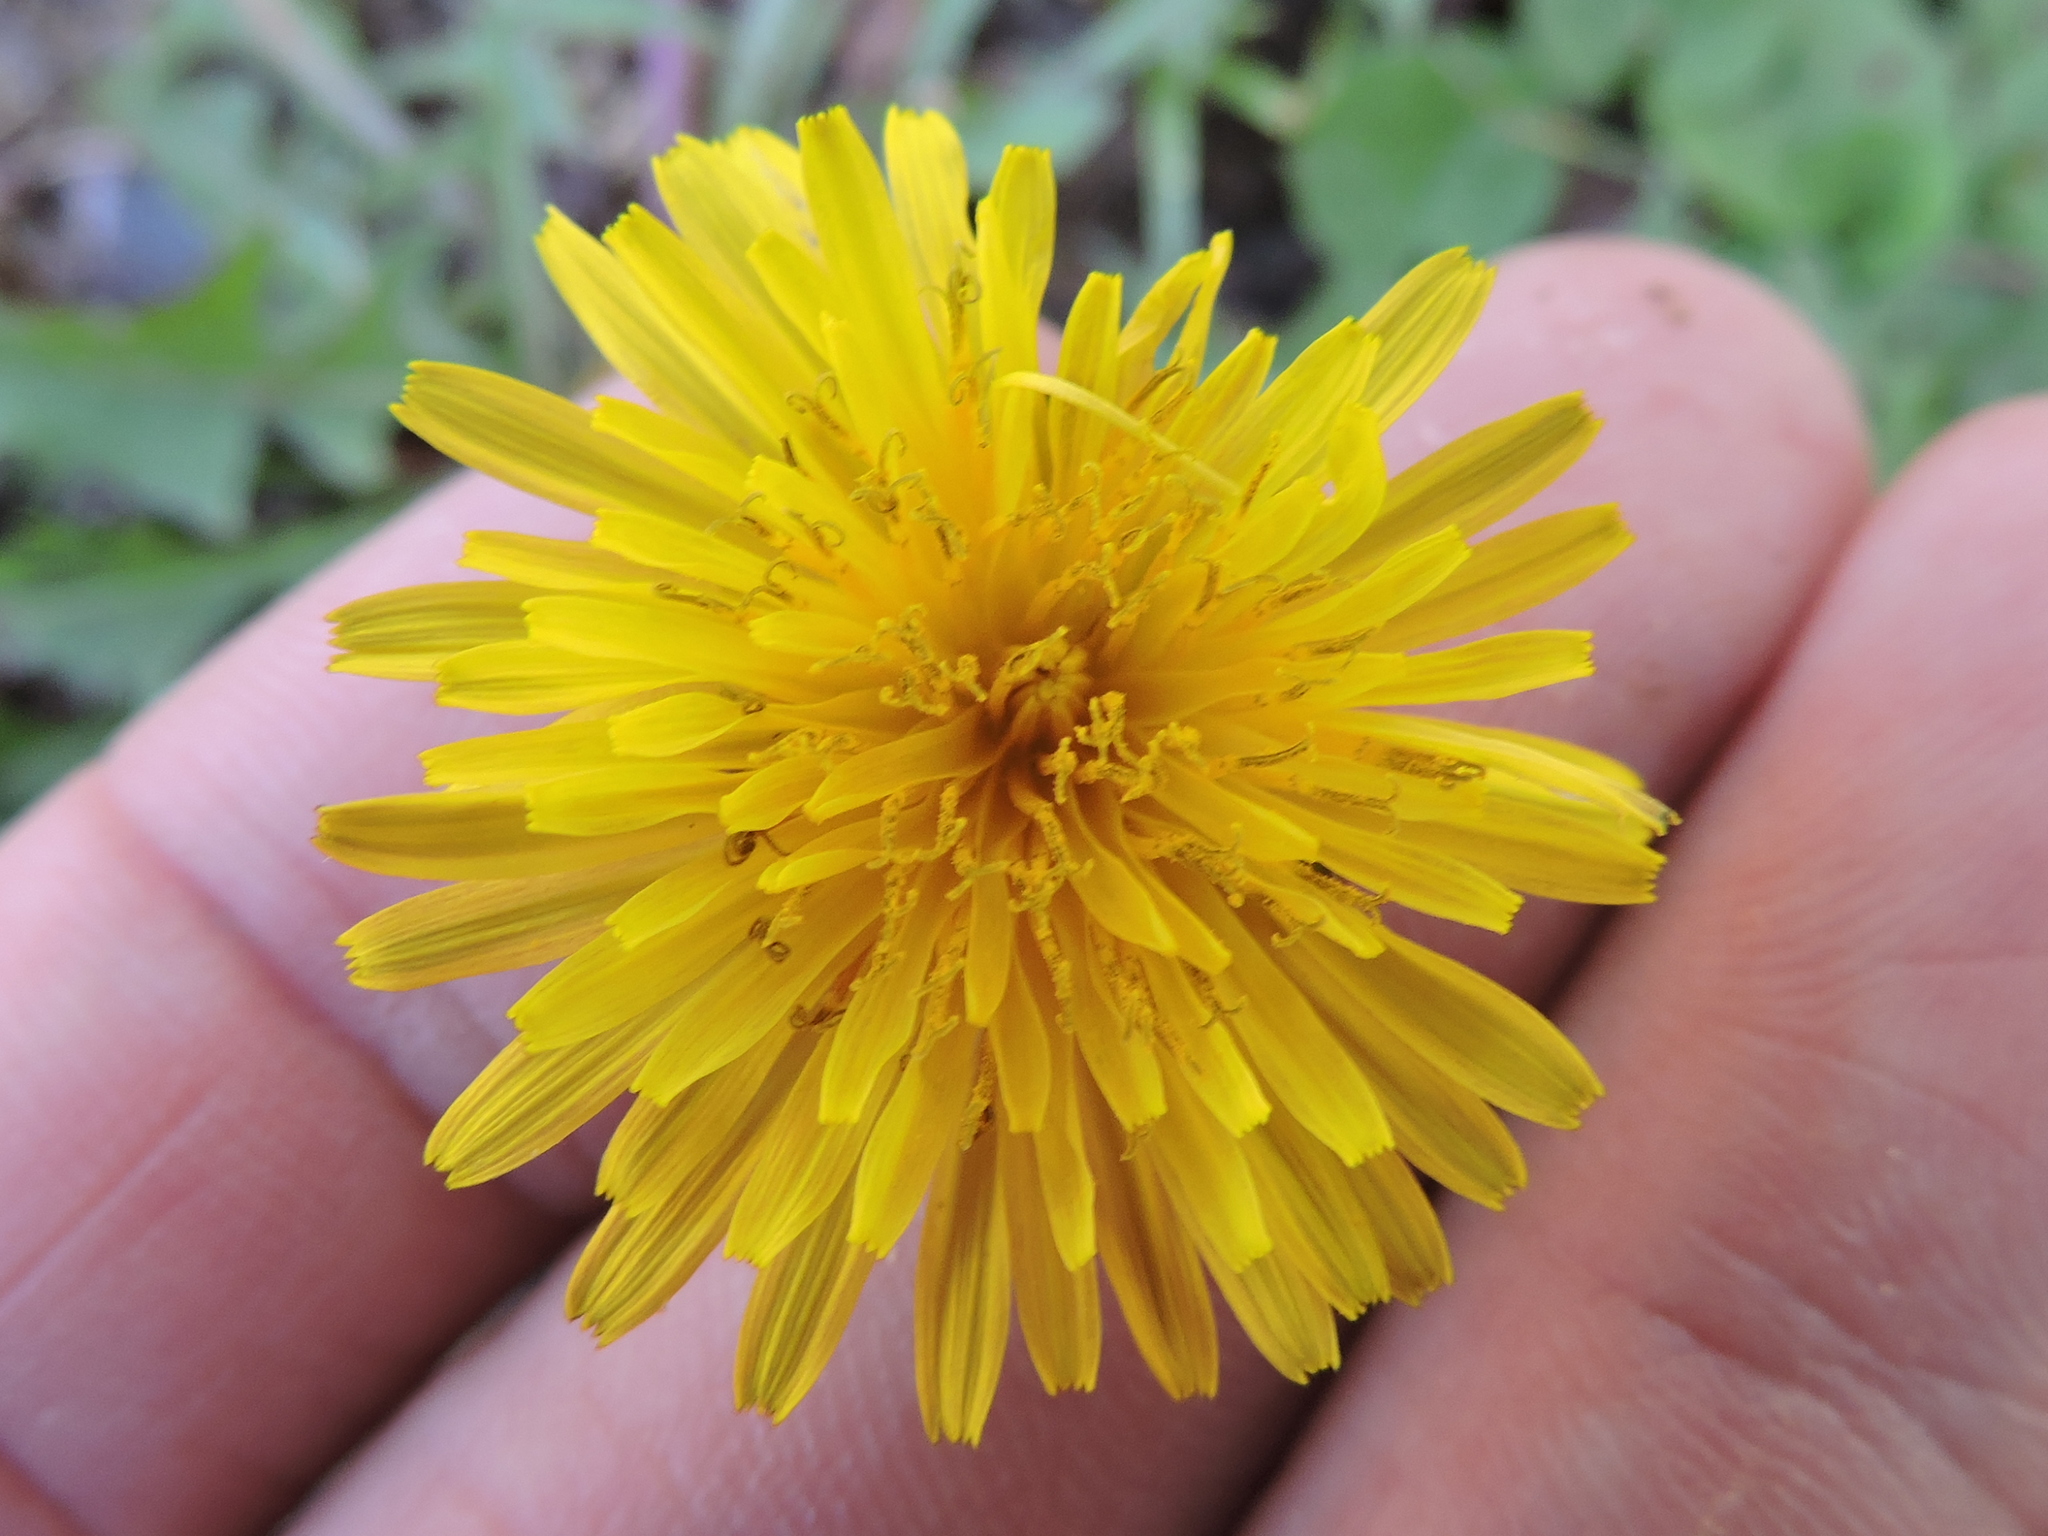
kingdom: Plantae
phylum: Tracheophyta
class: Magnoliopsida
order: Asterales
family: Asteraceae
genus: Taraxacum
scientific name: Taraxacum officinale
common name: Common dandelion
